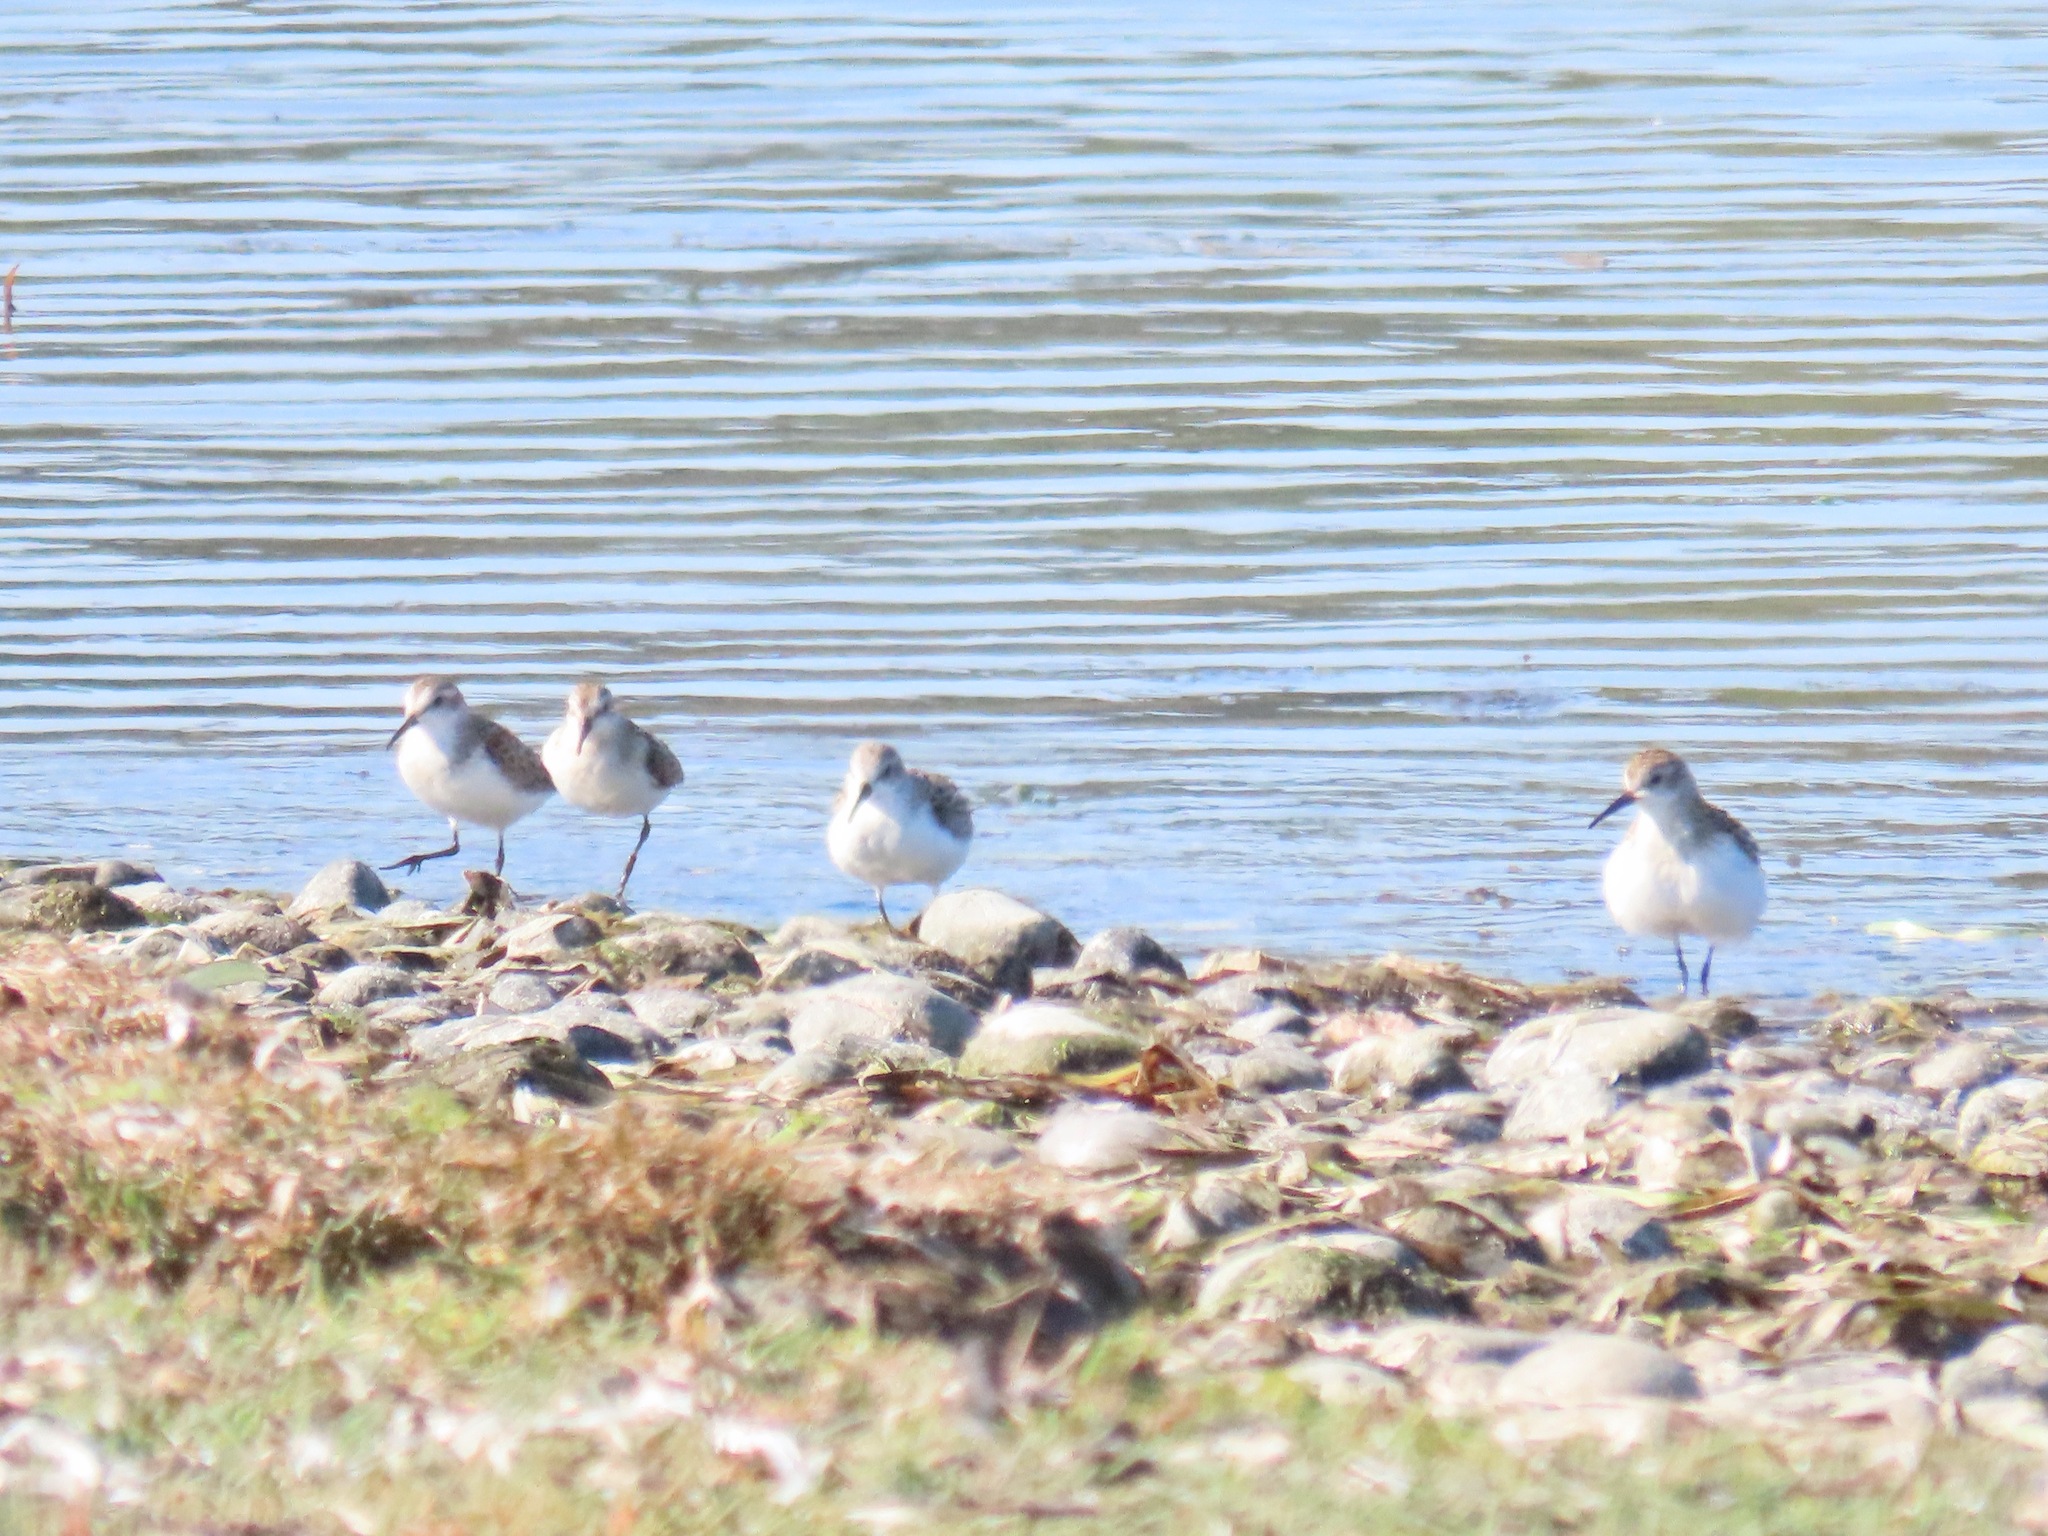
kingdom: Animalia
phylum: Chordata
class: Aves
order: Charadriiformes
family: Scolopacidae
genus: Calidris
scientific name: Calidris mauri
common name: Western sandpiper
